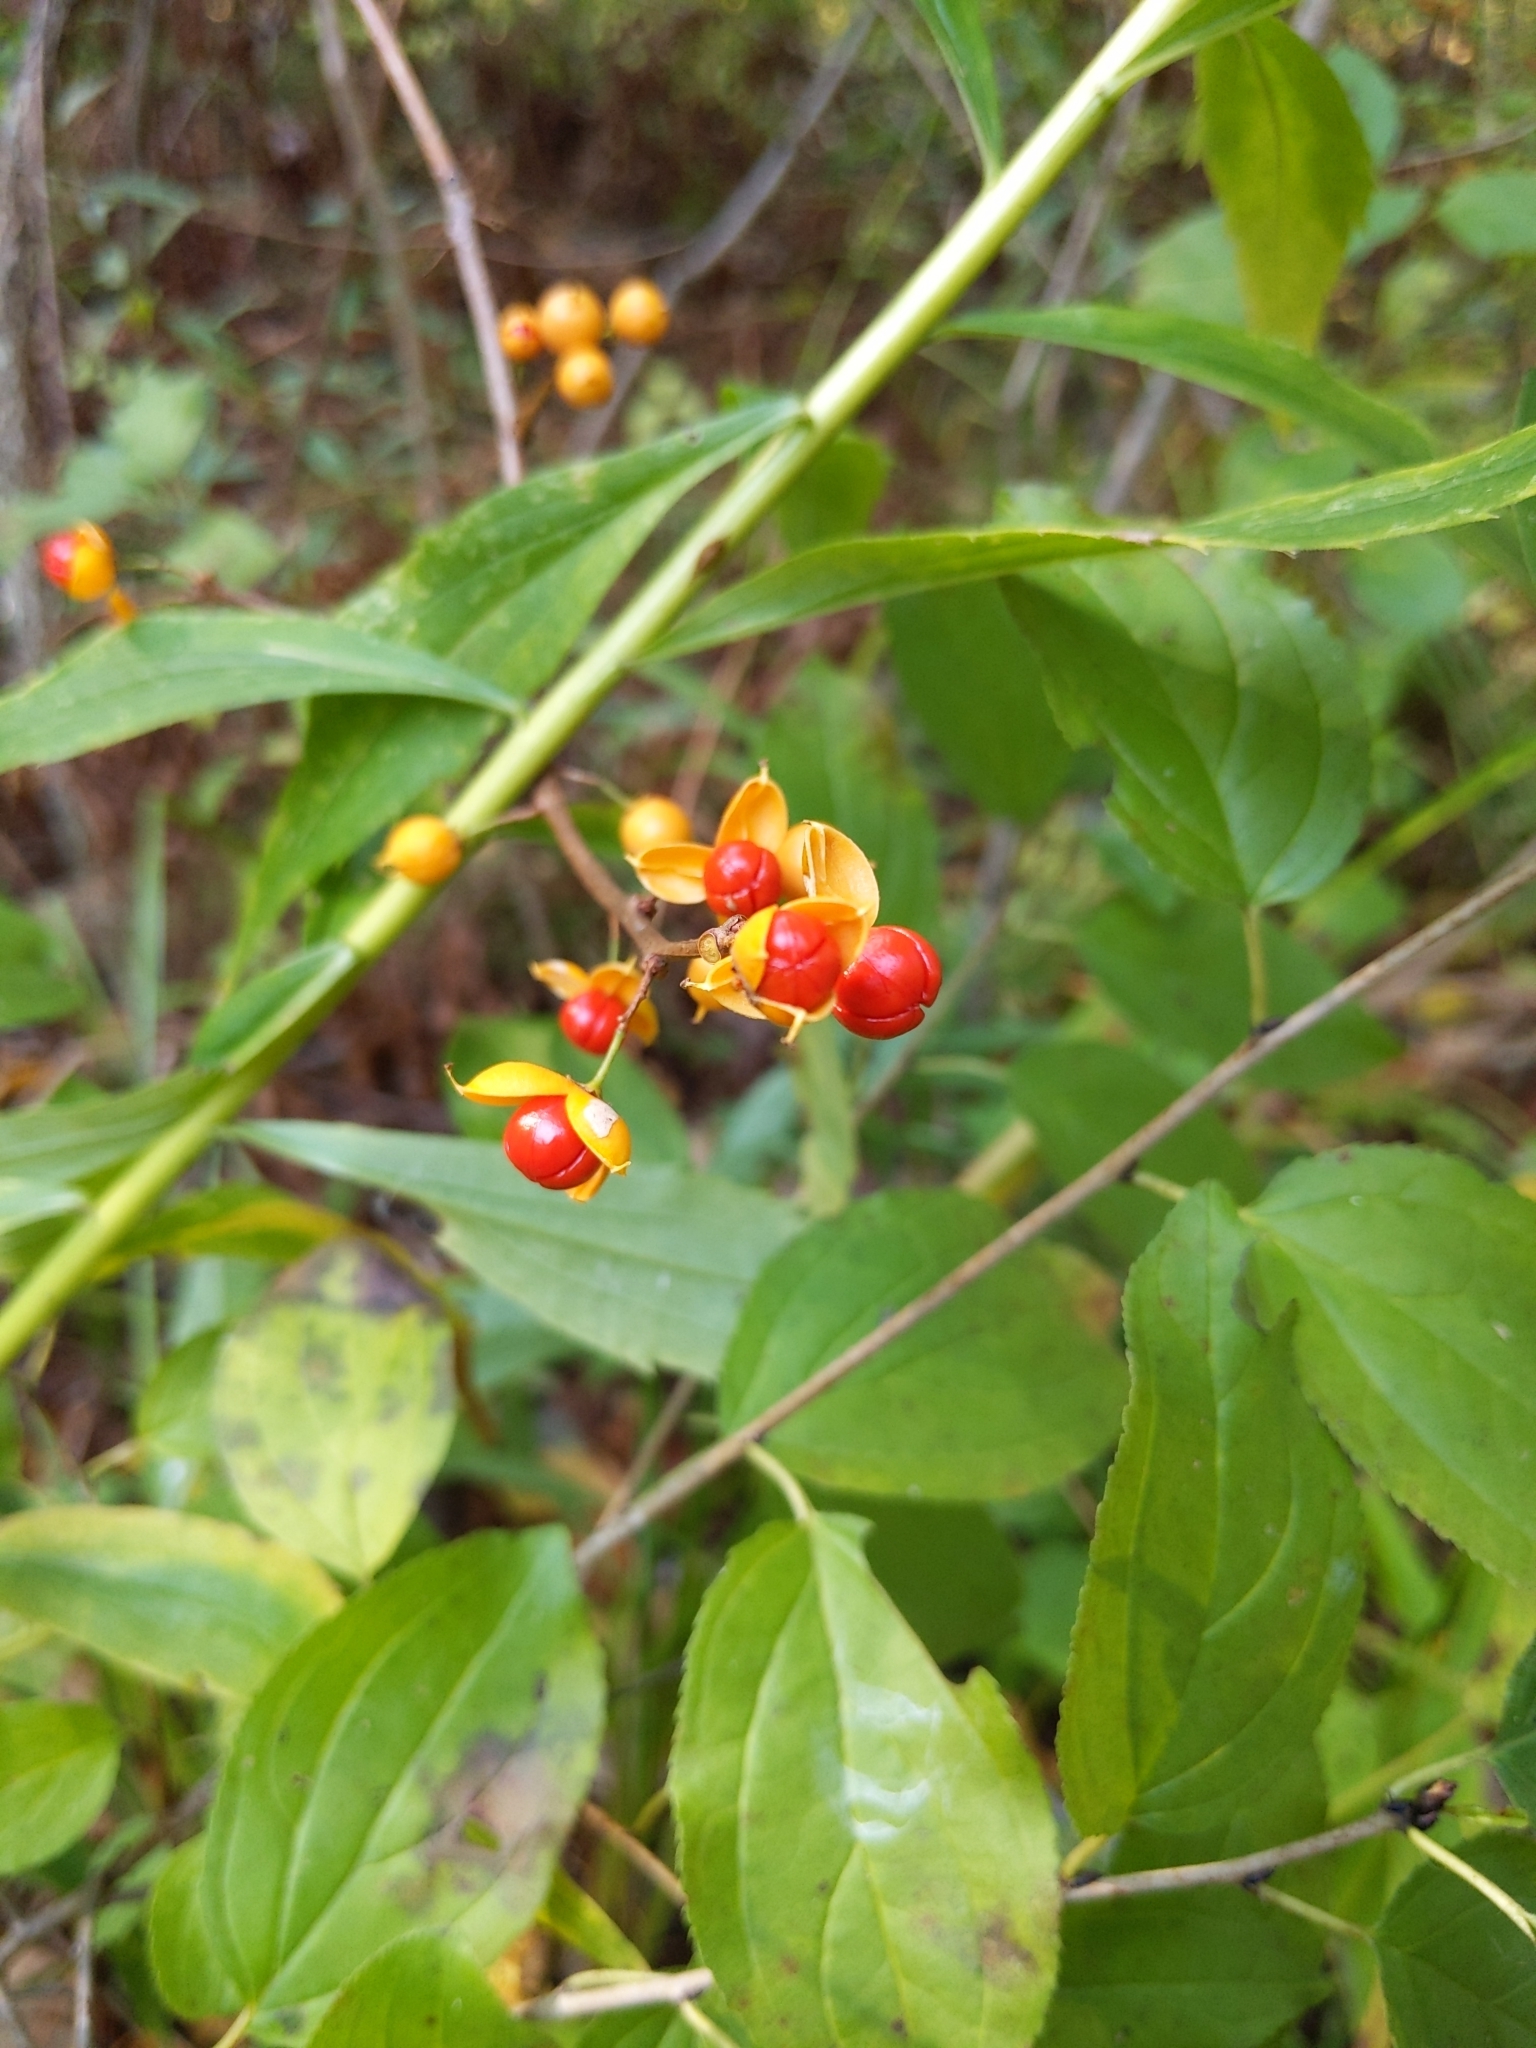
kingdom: Plantae
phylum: Tracheophyta
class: Magnoliopsida
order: Celastrales
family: Celastraceae
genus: Celastrus
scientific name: Celastrus orbiculatus
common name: Oriental bittersweet
